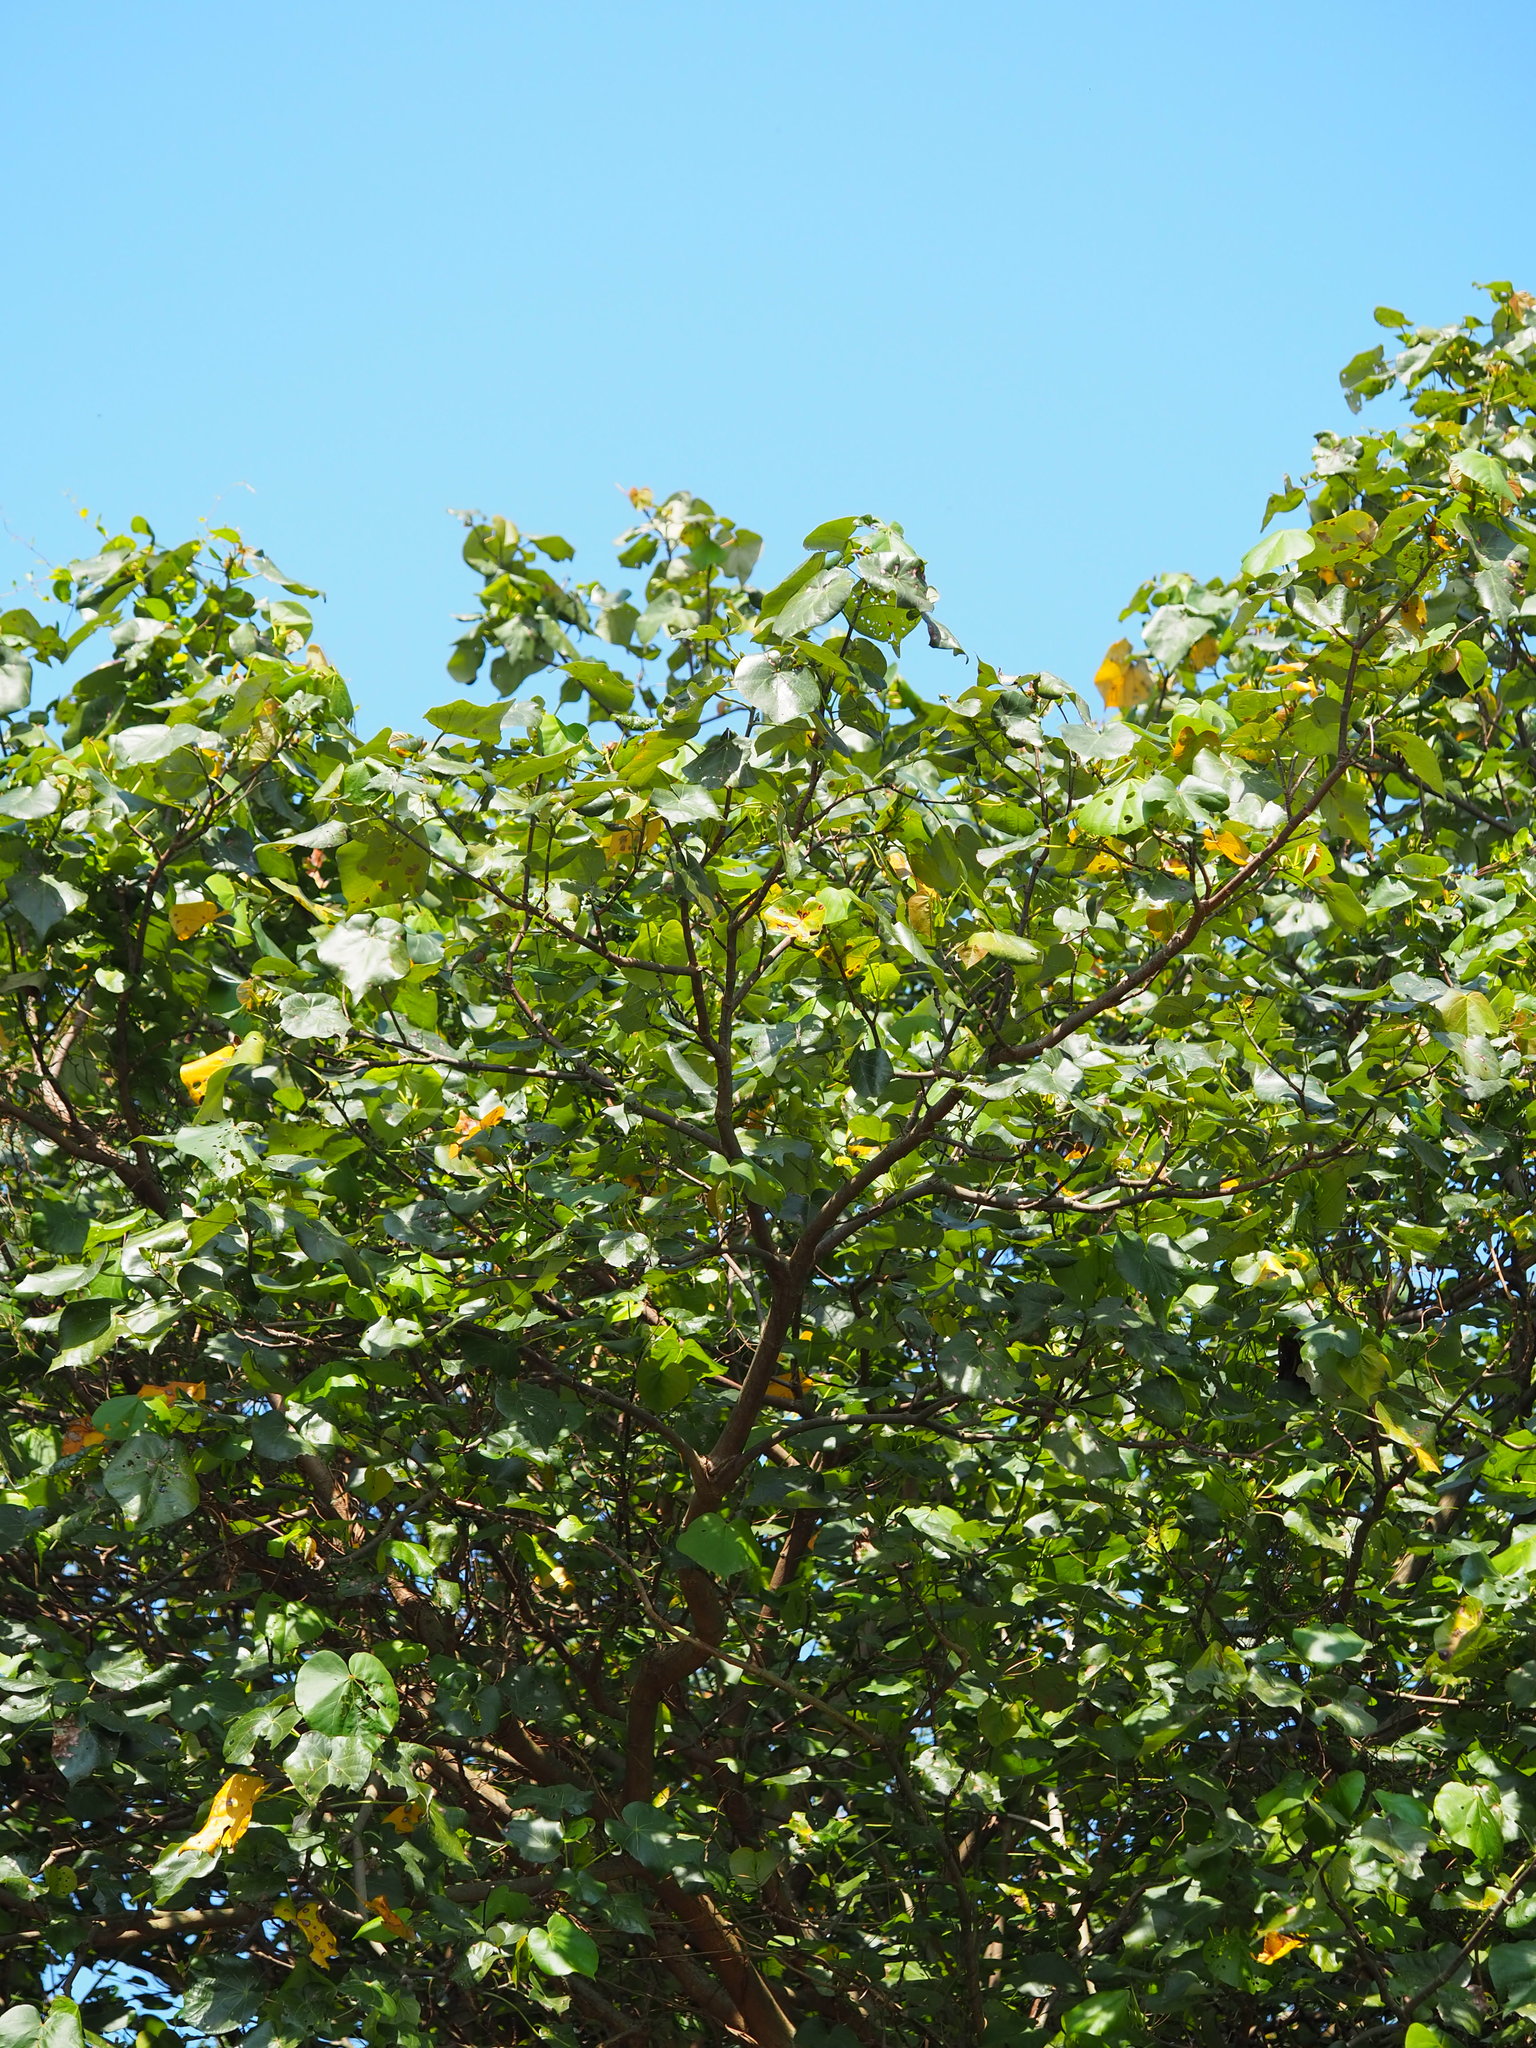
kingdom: Plantae
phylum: Tracheophyta
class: Magnoliopsida
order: Malvales
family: Malvaceae
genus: Talipariti
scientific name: Talipariti tiliaceum
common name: Sea hibiscus
